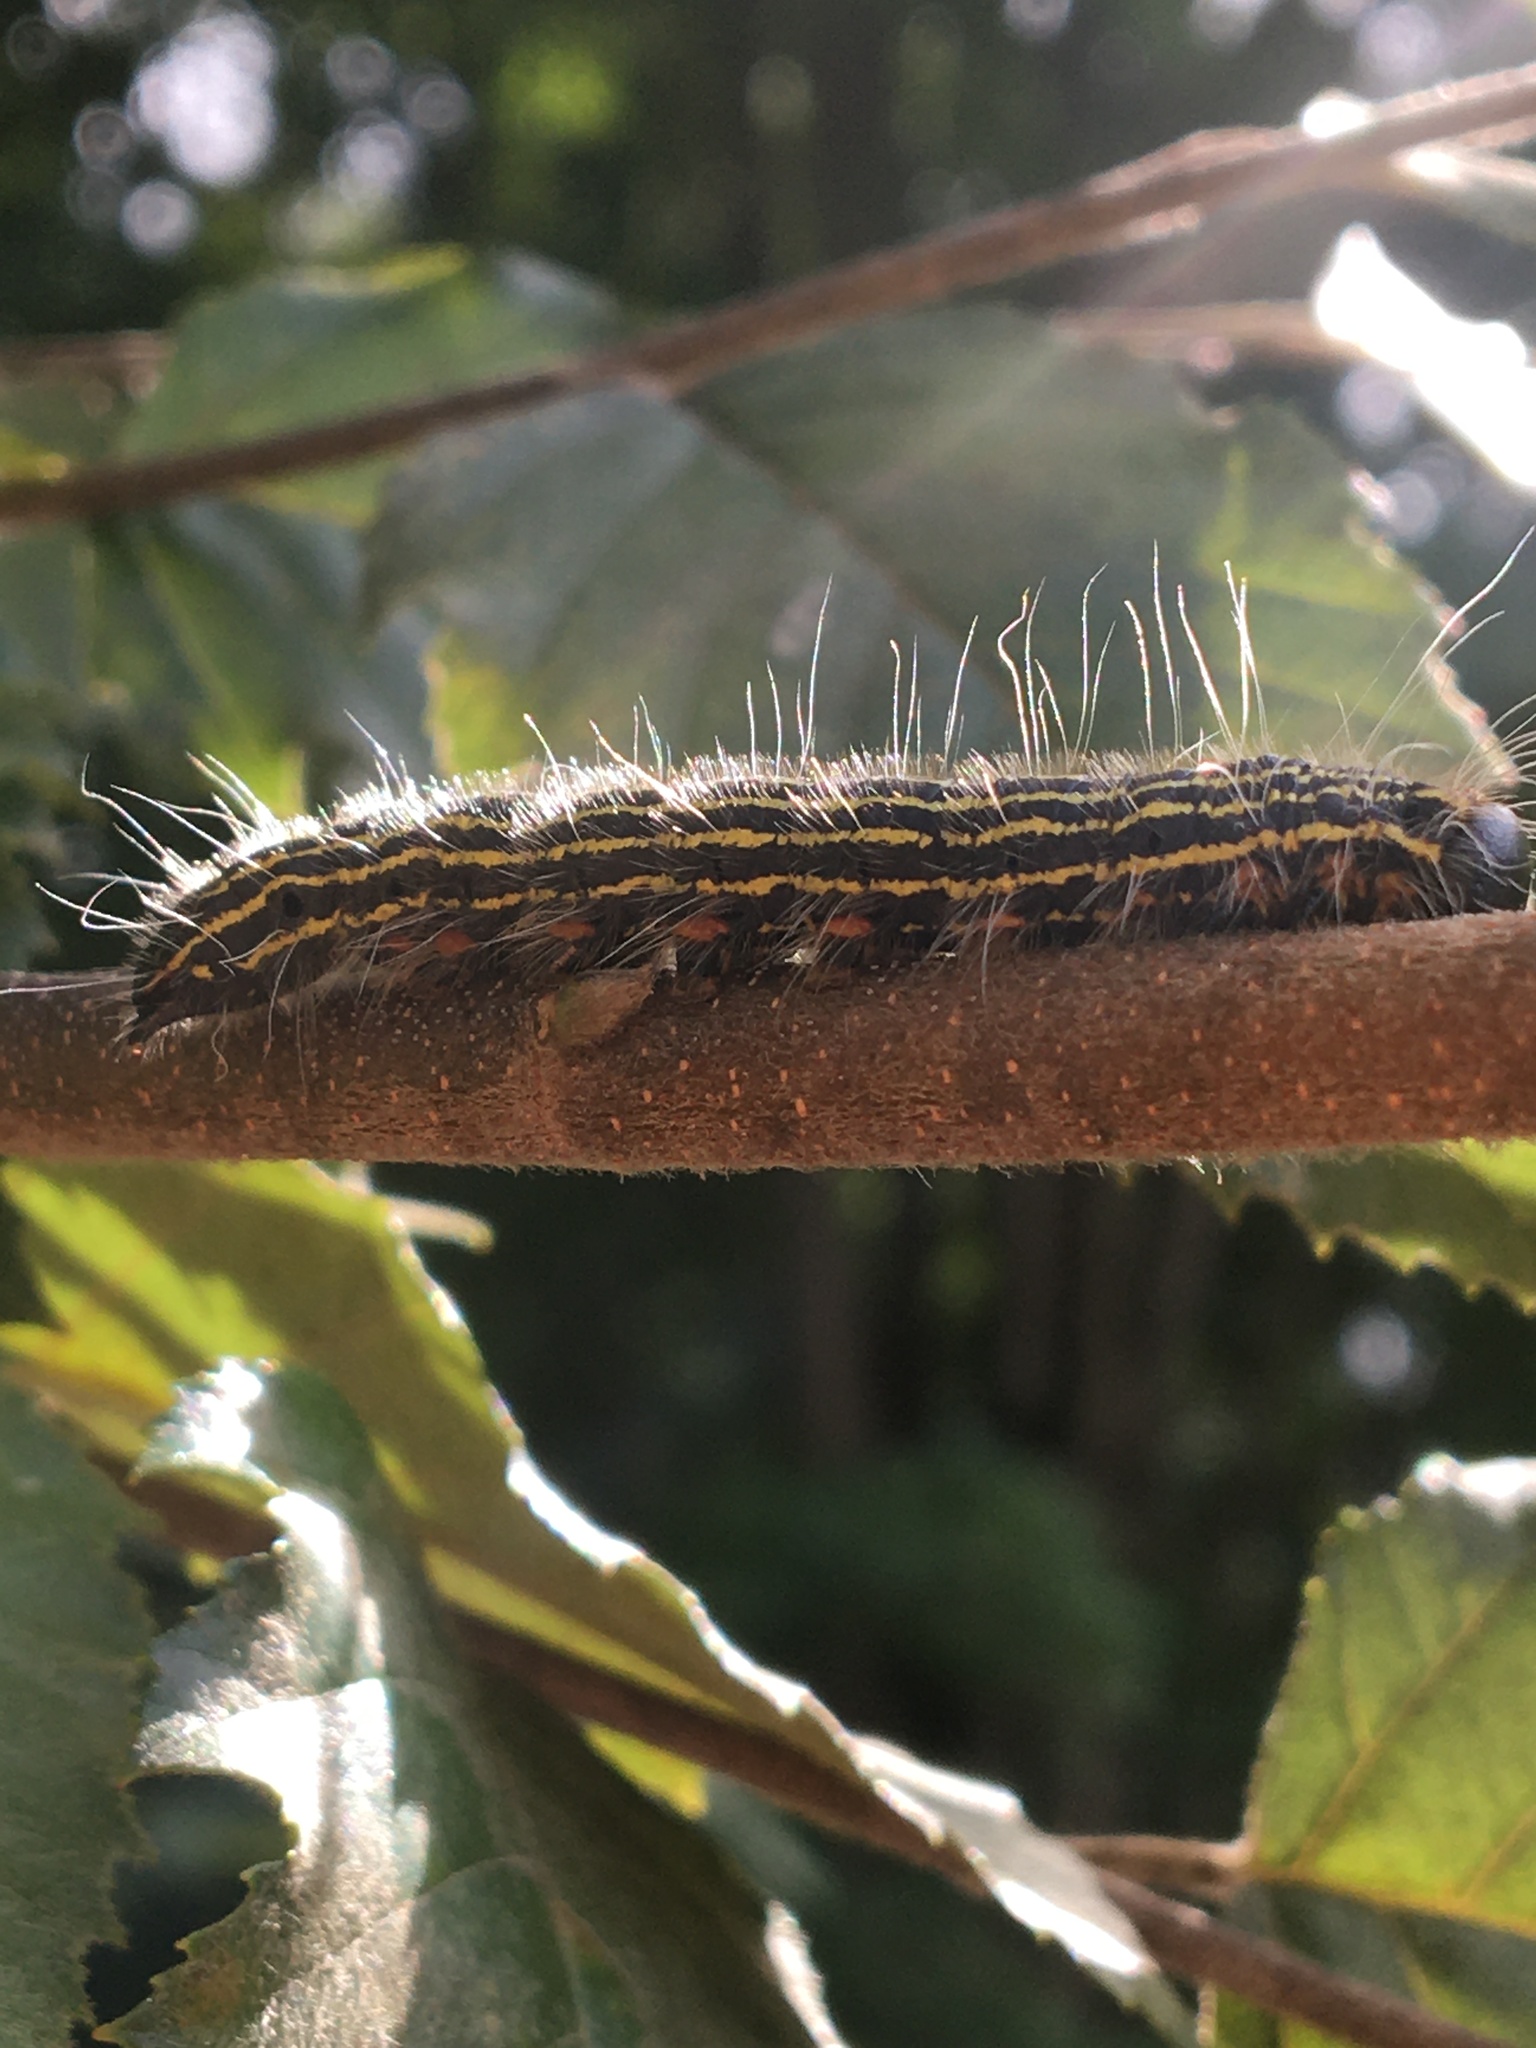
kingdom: Animalia
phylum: Arthropoda
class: Insecta
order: Lepidoptera
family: Notodontidae
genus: Datana
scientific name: Datana ministra
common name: Yellow-necked caterpillar moth
